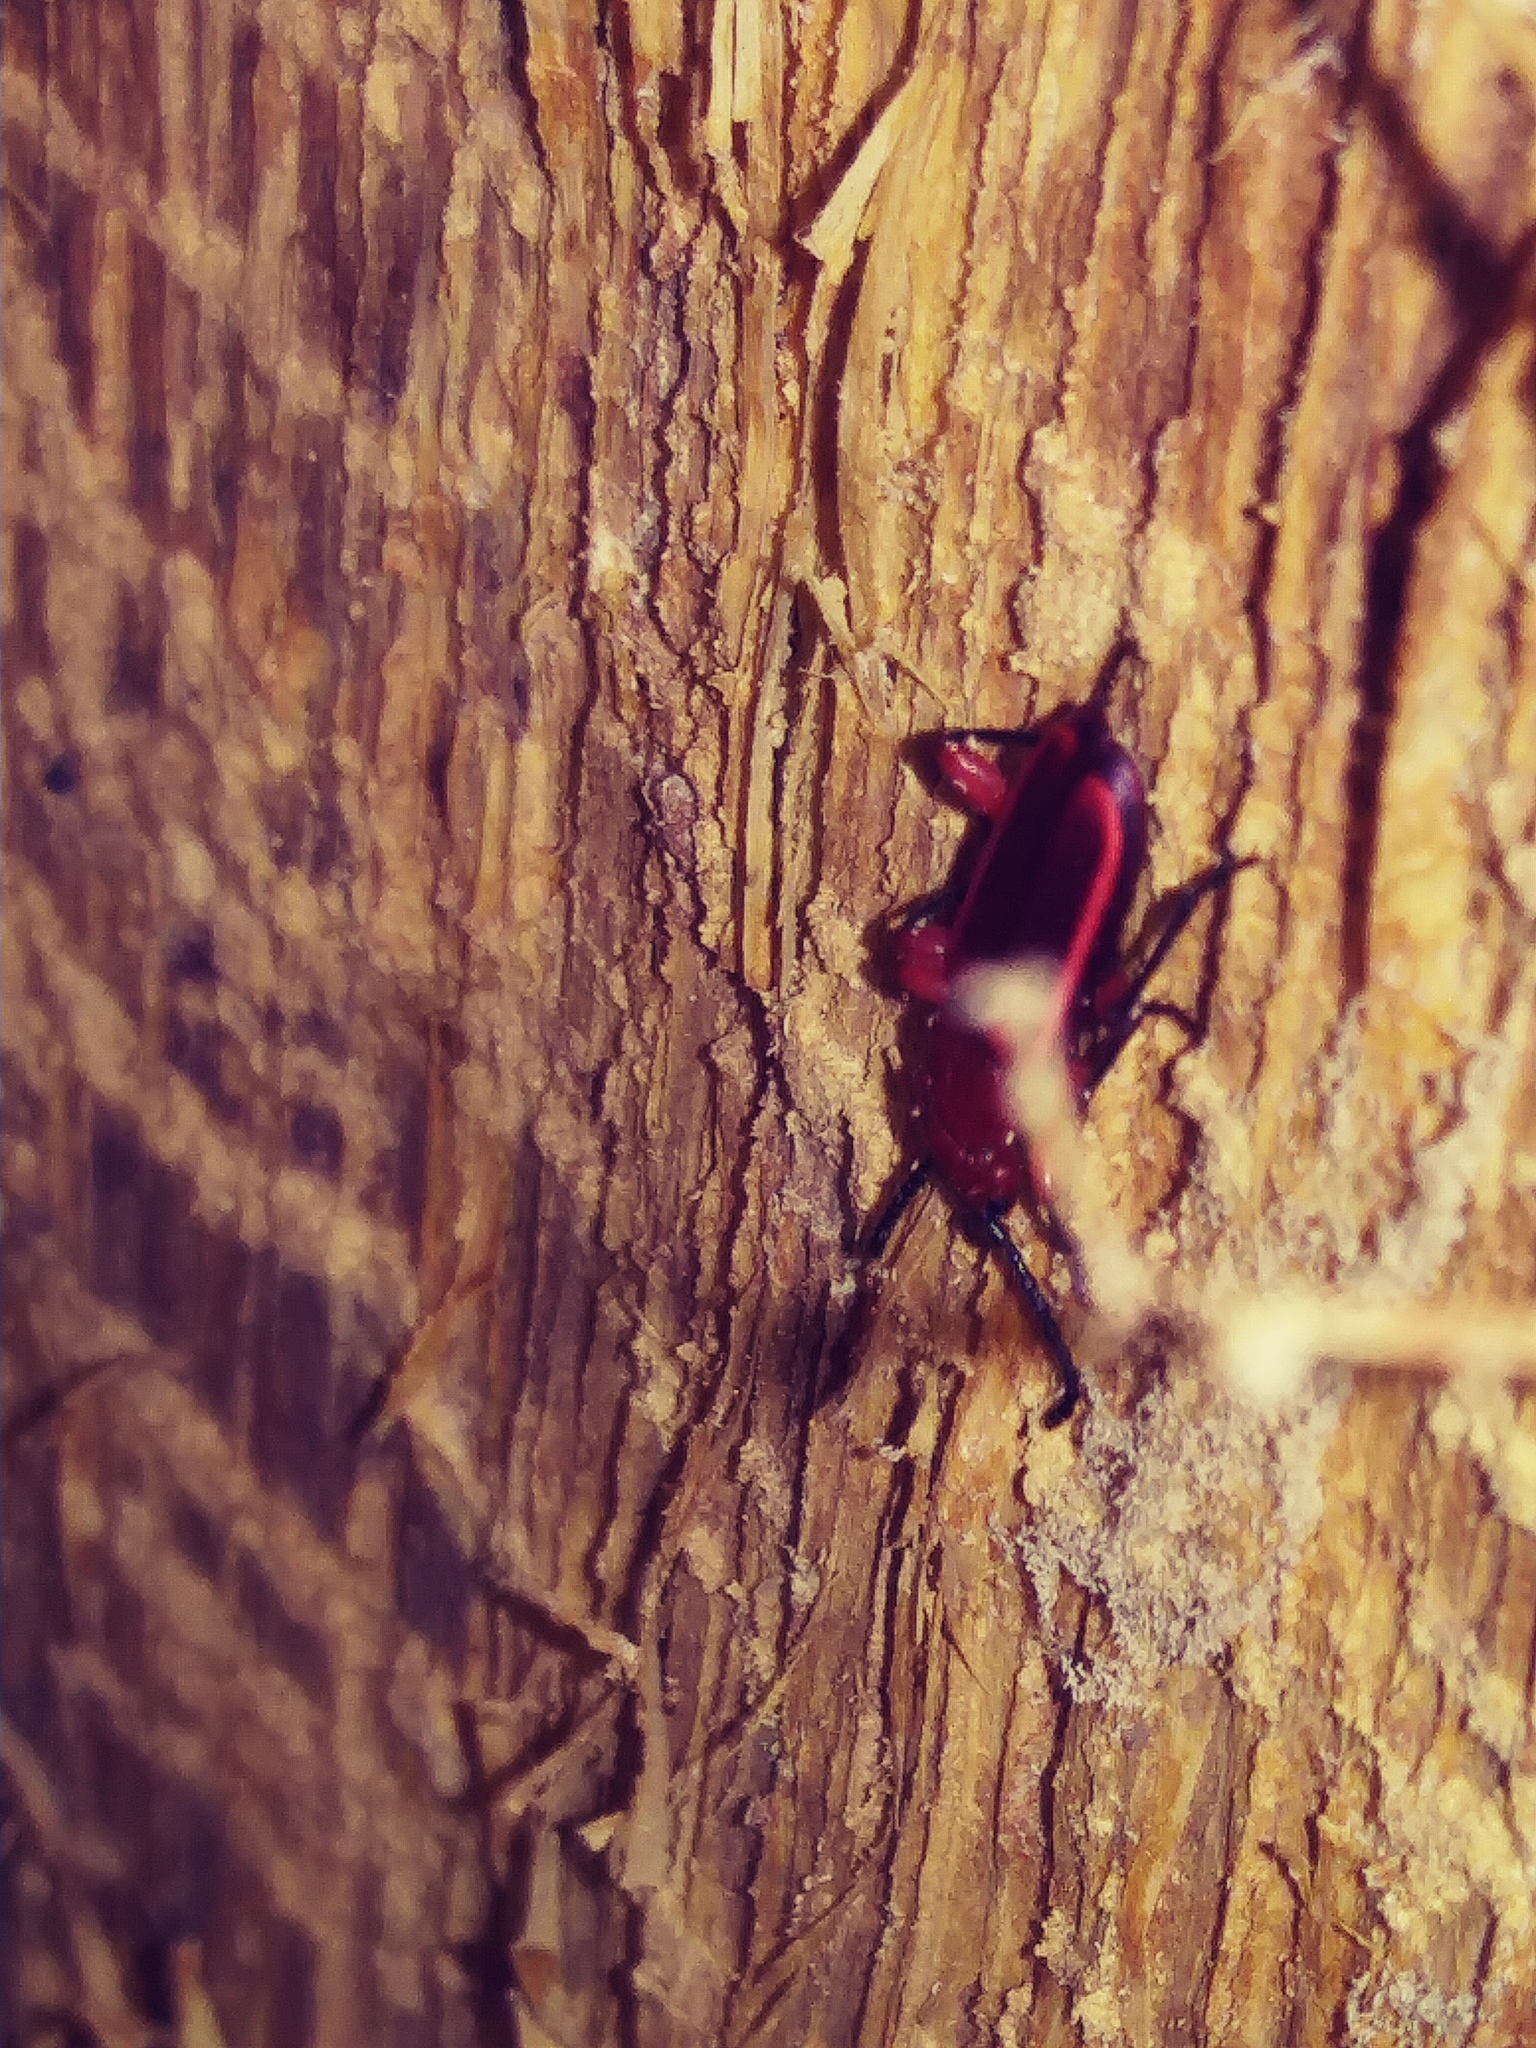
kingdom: Animalia
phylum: Arthropoda
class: Insecta
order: Coleoptera
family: Cucujidae
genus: Cucujus
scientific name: Cucujus clavipes
